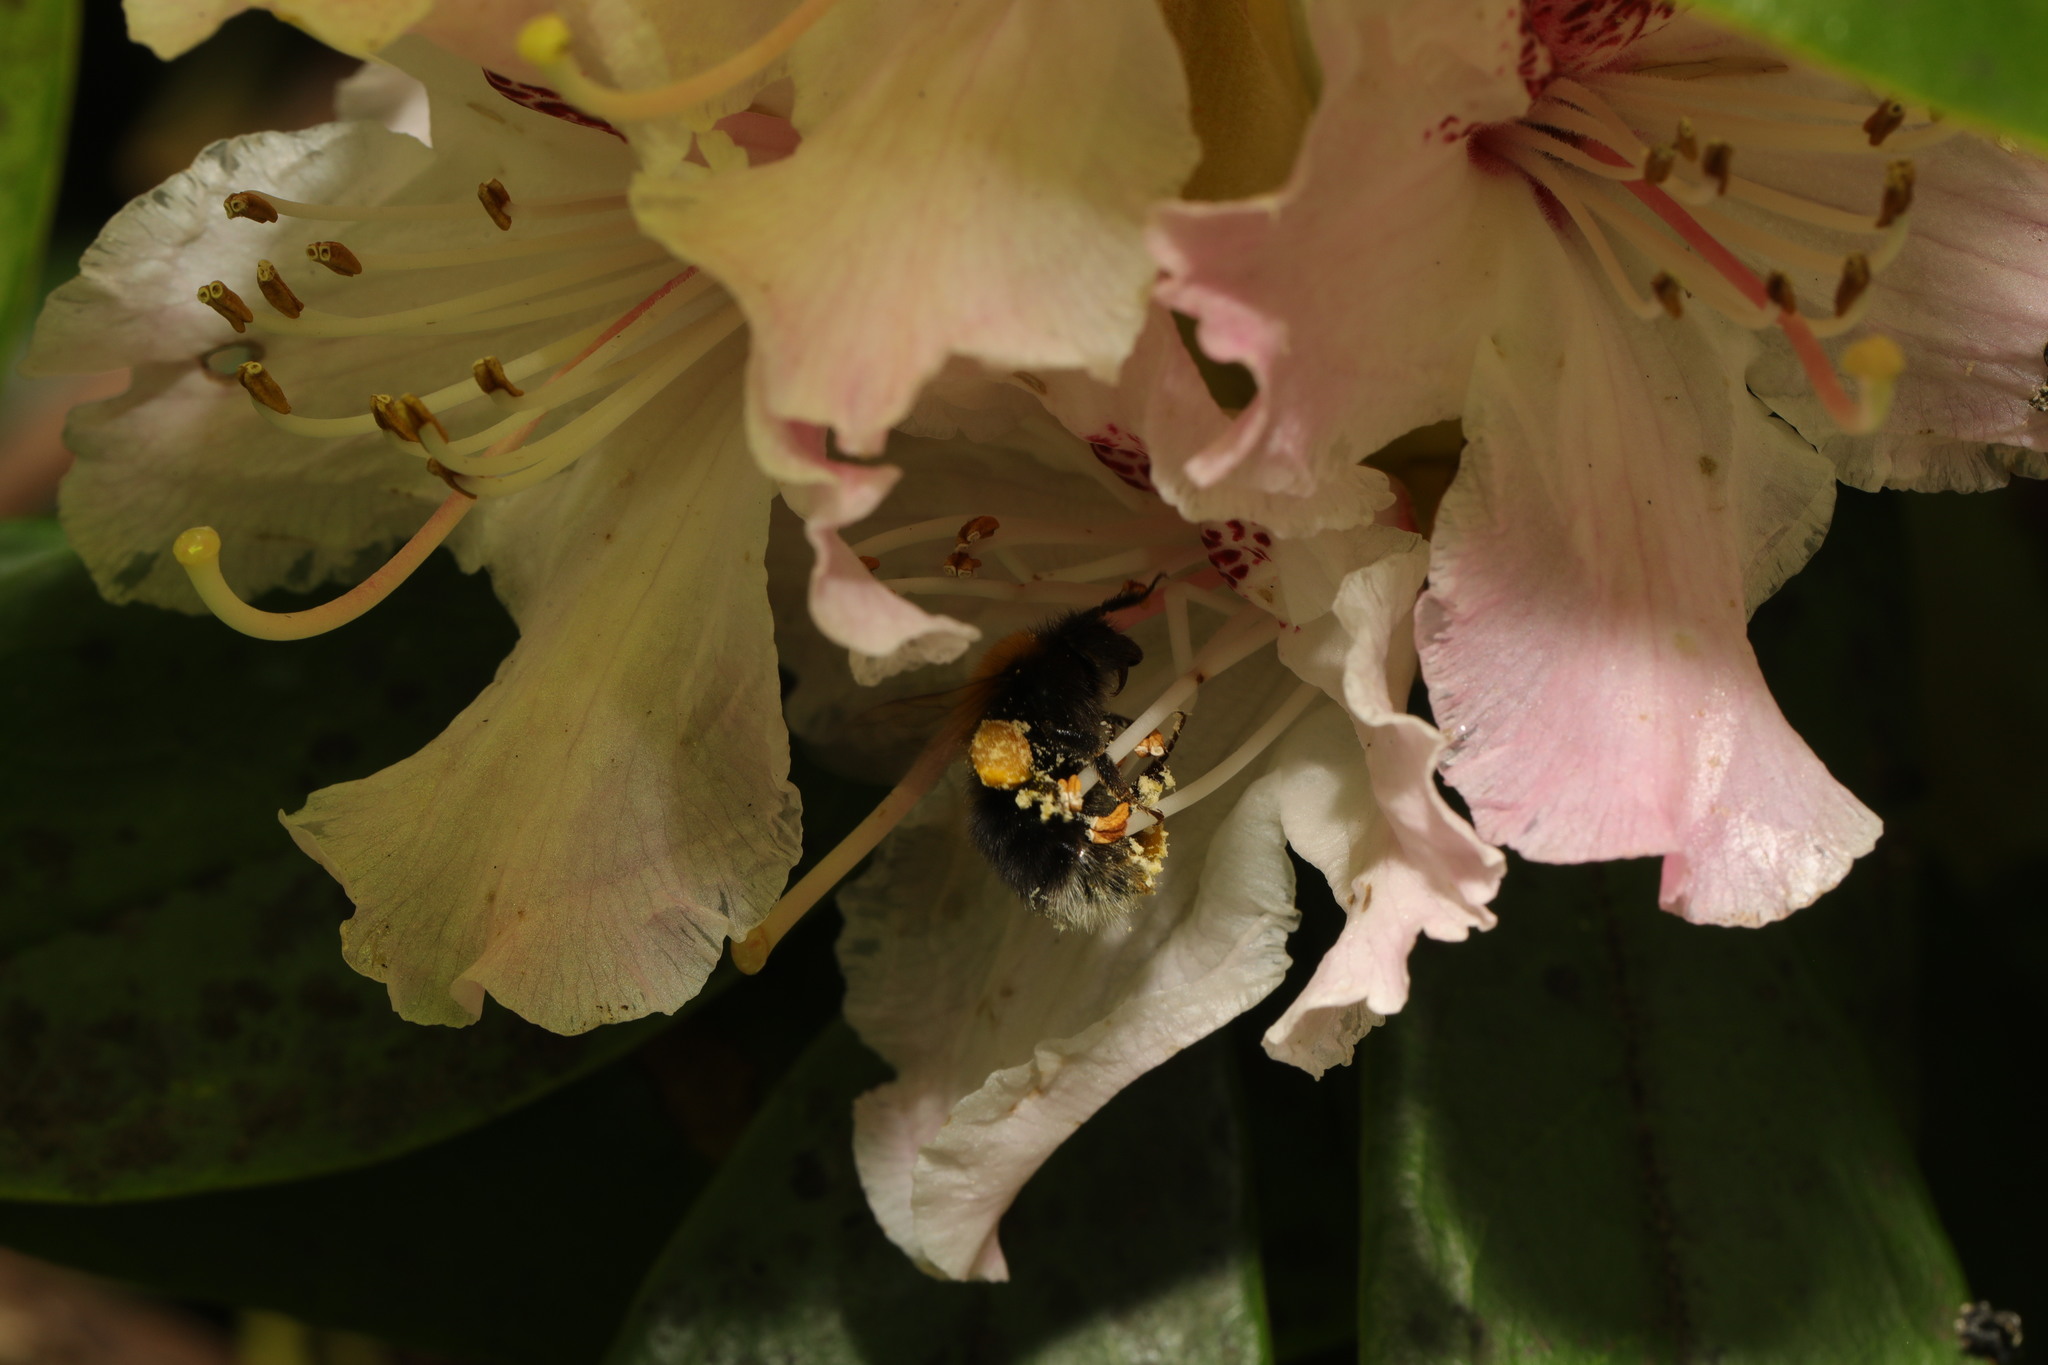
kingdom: Animalia
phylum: Arthropoda
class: Insecta
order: Hymenoptera
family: Apidae
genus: Bombus
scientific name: Bombus hypnorum
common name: New garden bumblebee
